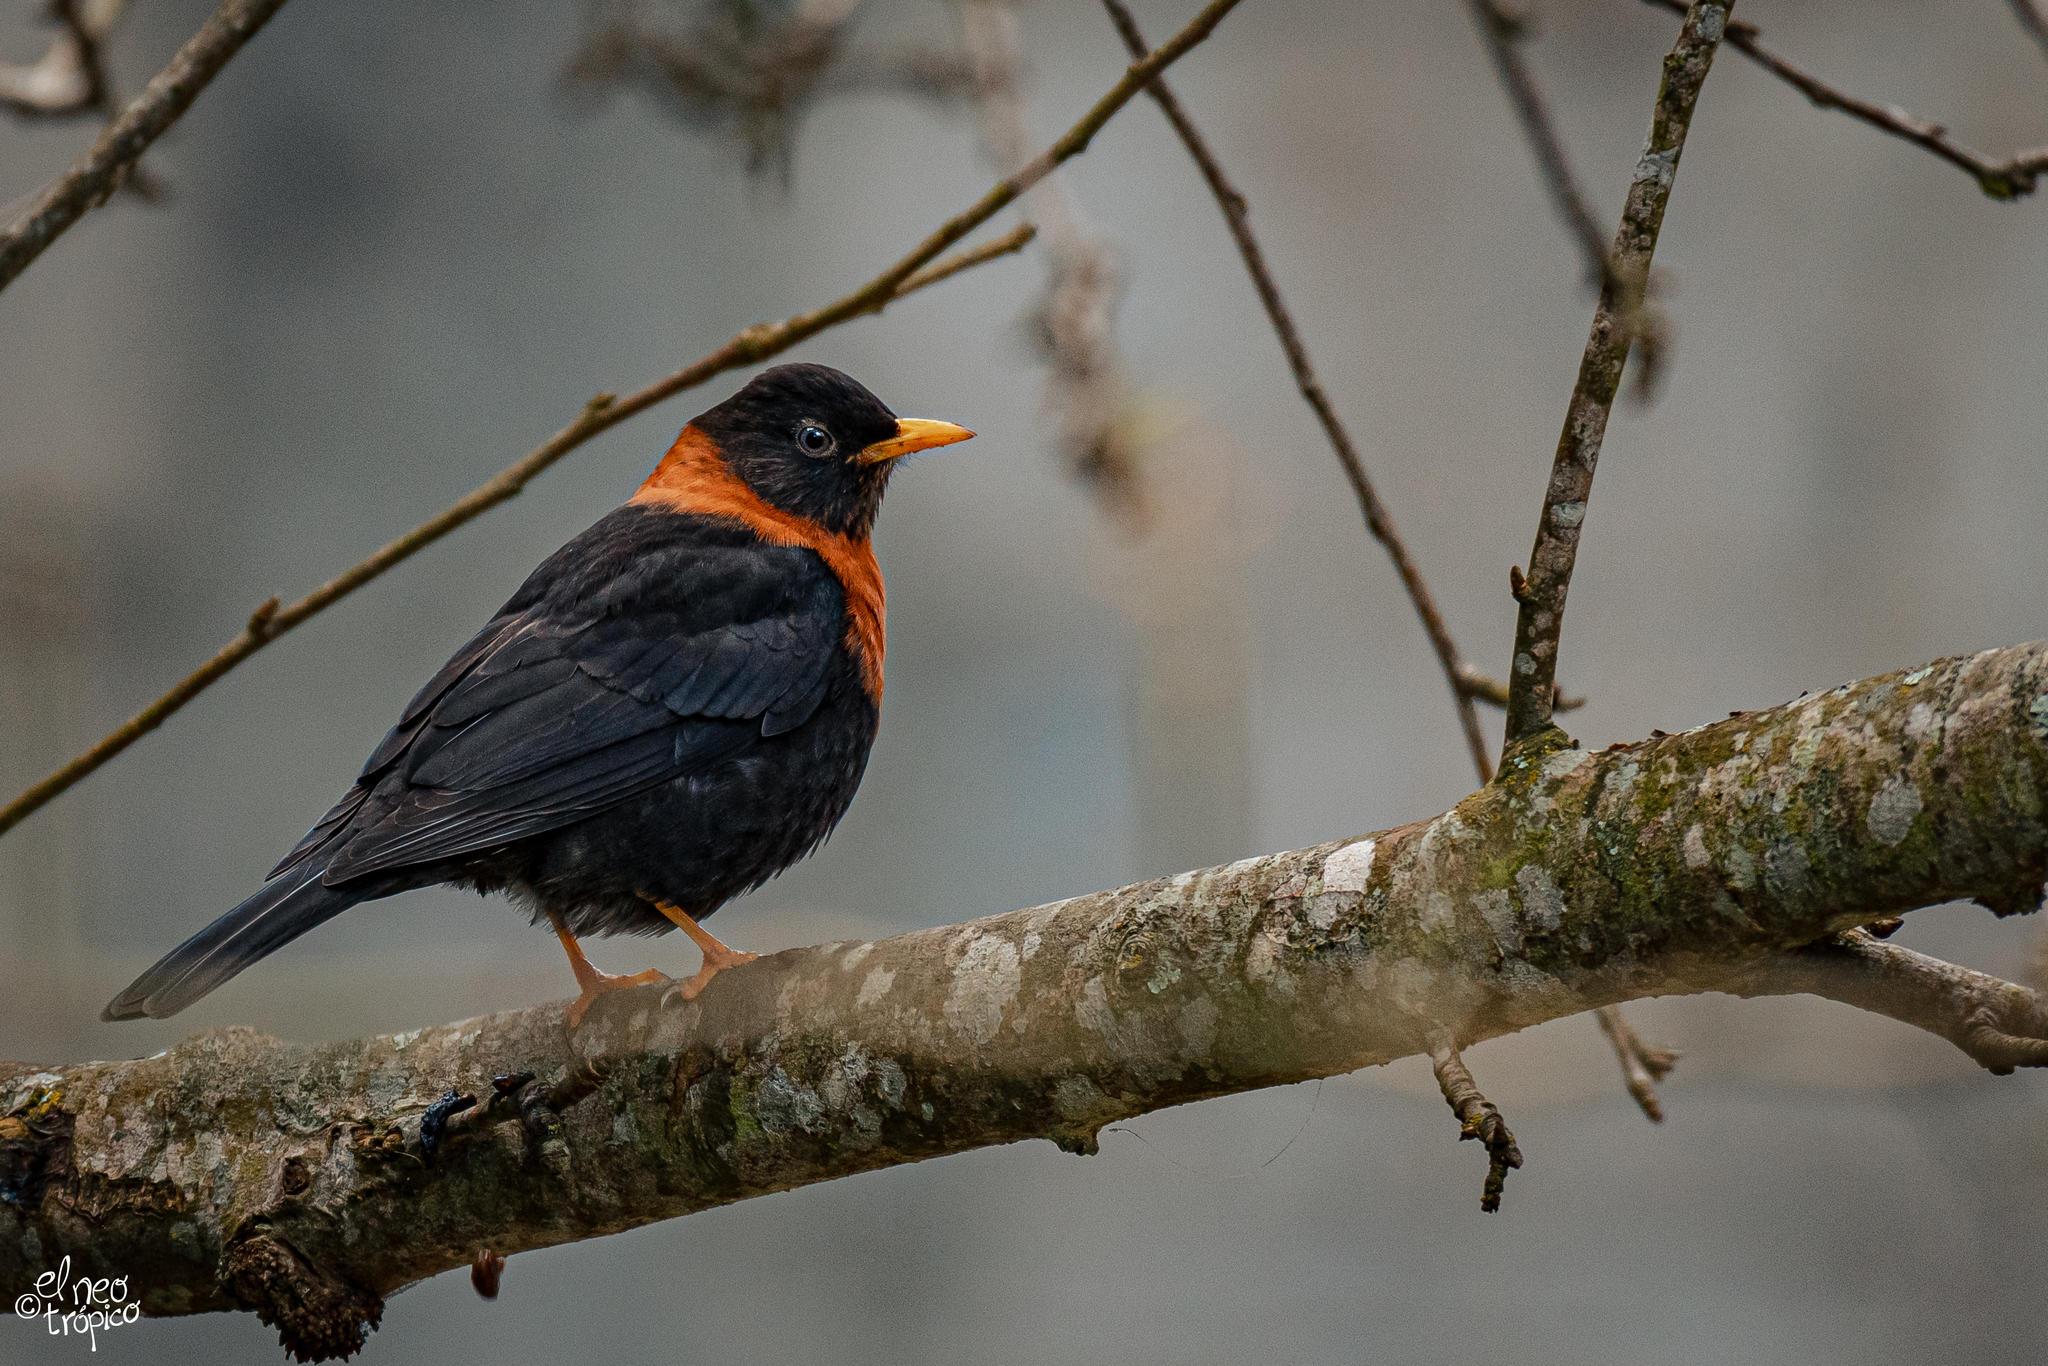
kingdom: Animalia
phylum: Chordata
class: Aves
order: Passeriformes
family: Turdidae
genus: Turdus
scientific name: Turdus rufitorques
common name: Rufous-collared thrush
